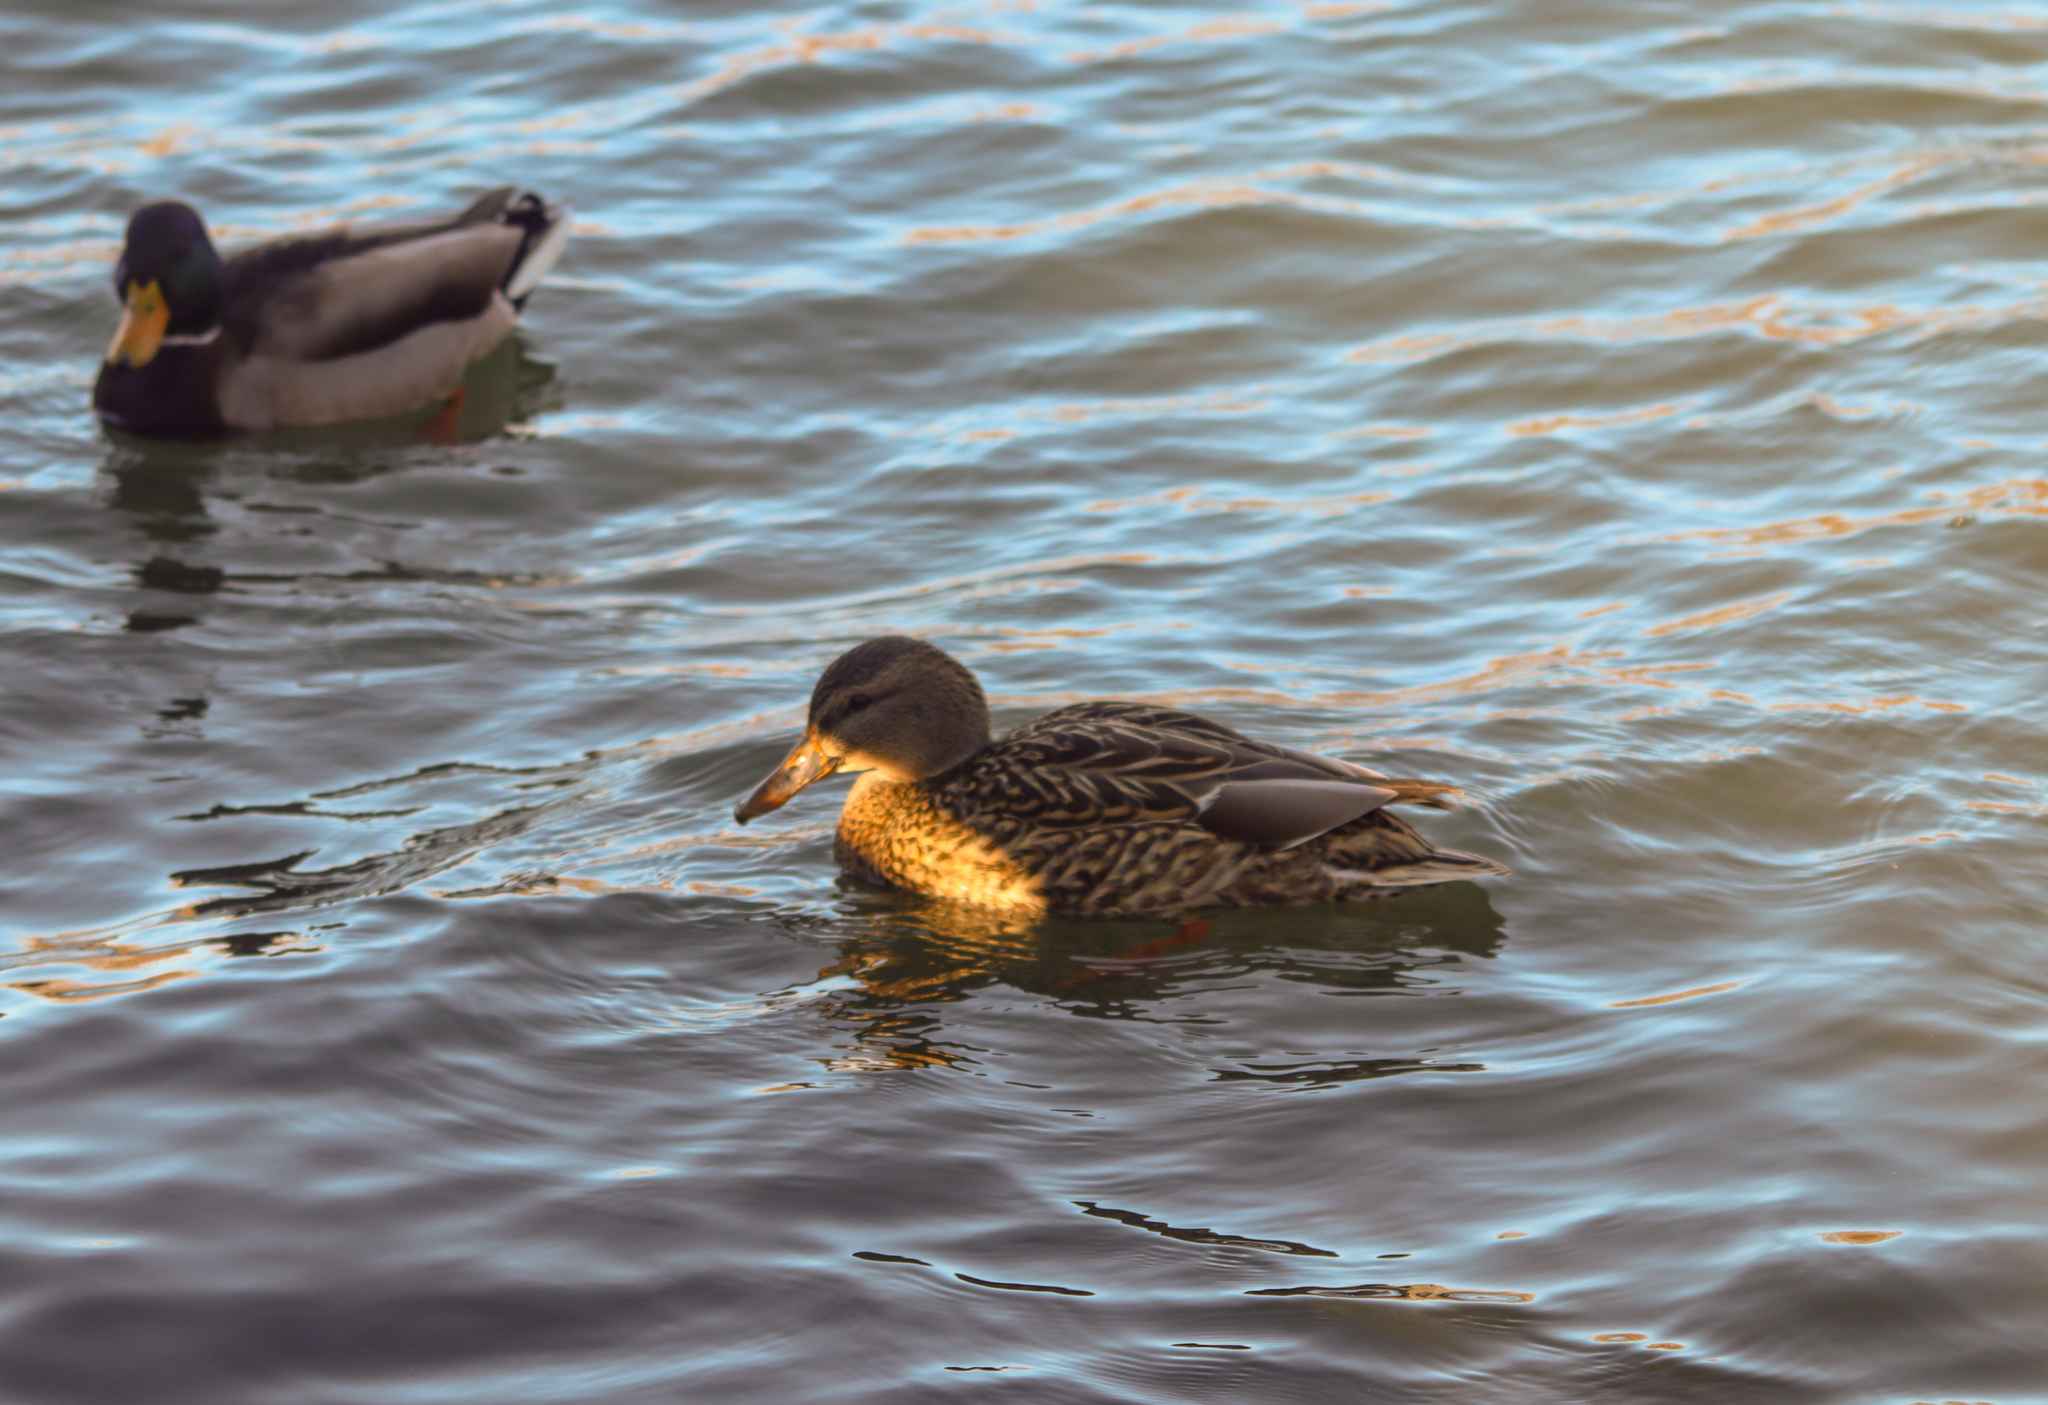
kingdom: Animalia
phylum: Chordata
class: Aves
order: Anseriformes
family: Anatidae
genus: Anas
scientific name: Anas platyrhynchos
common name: Mallard
